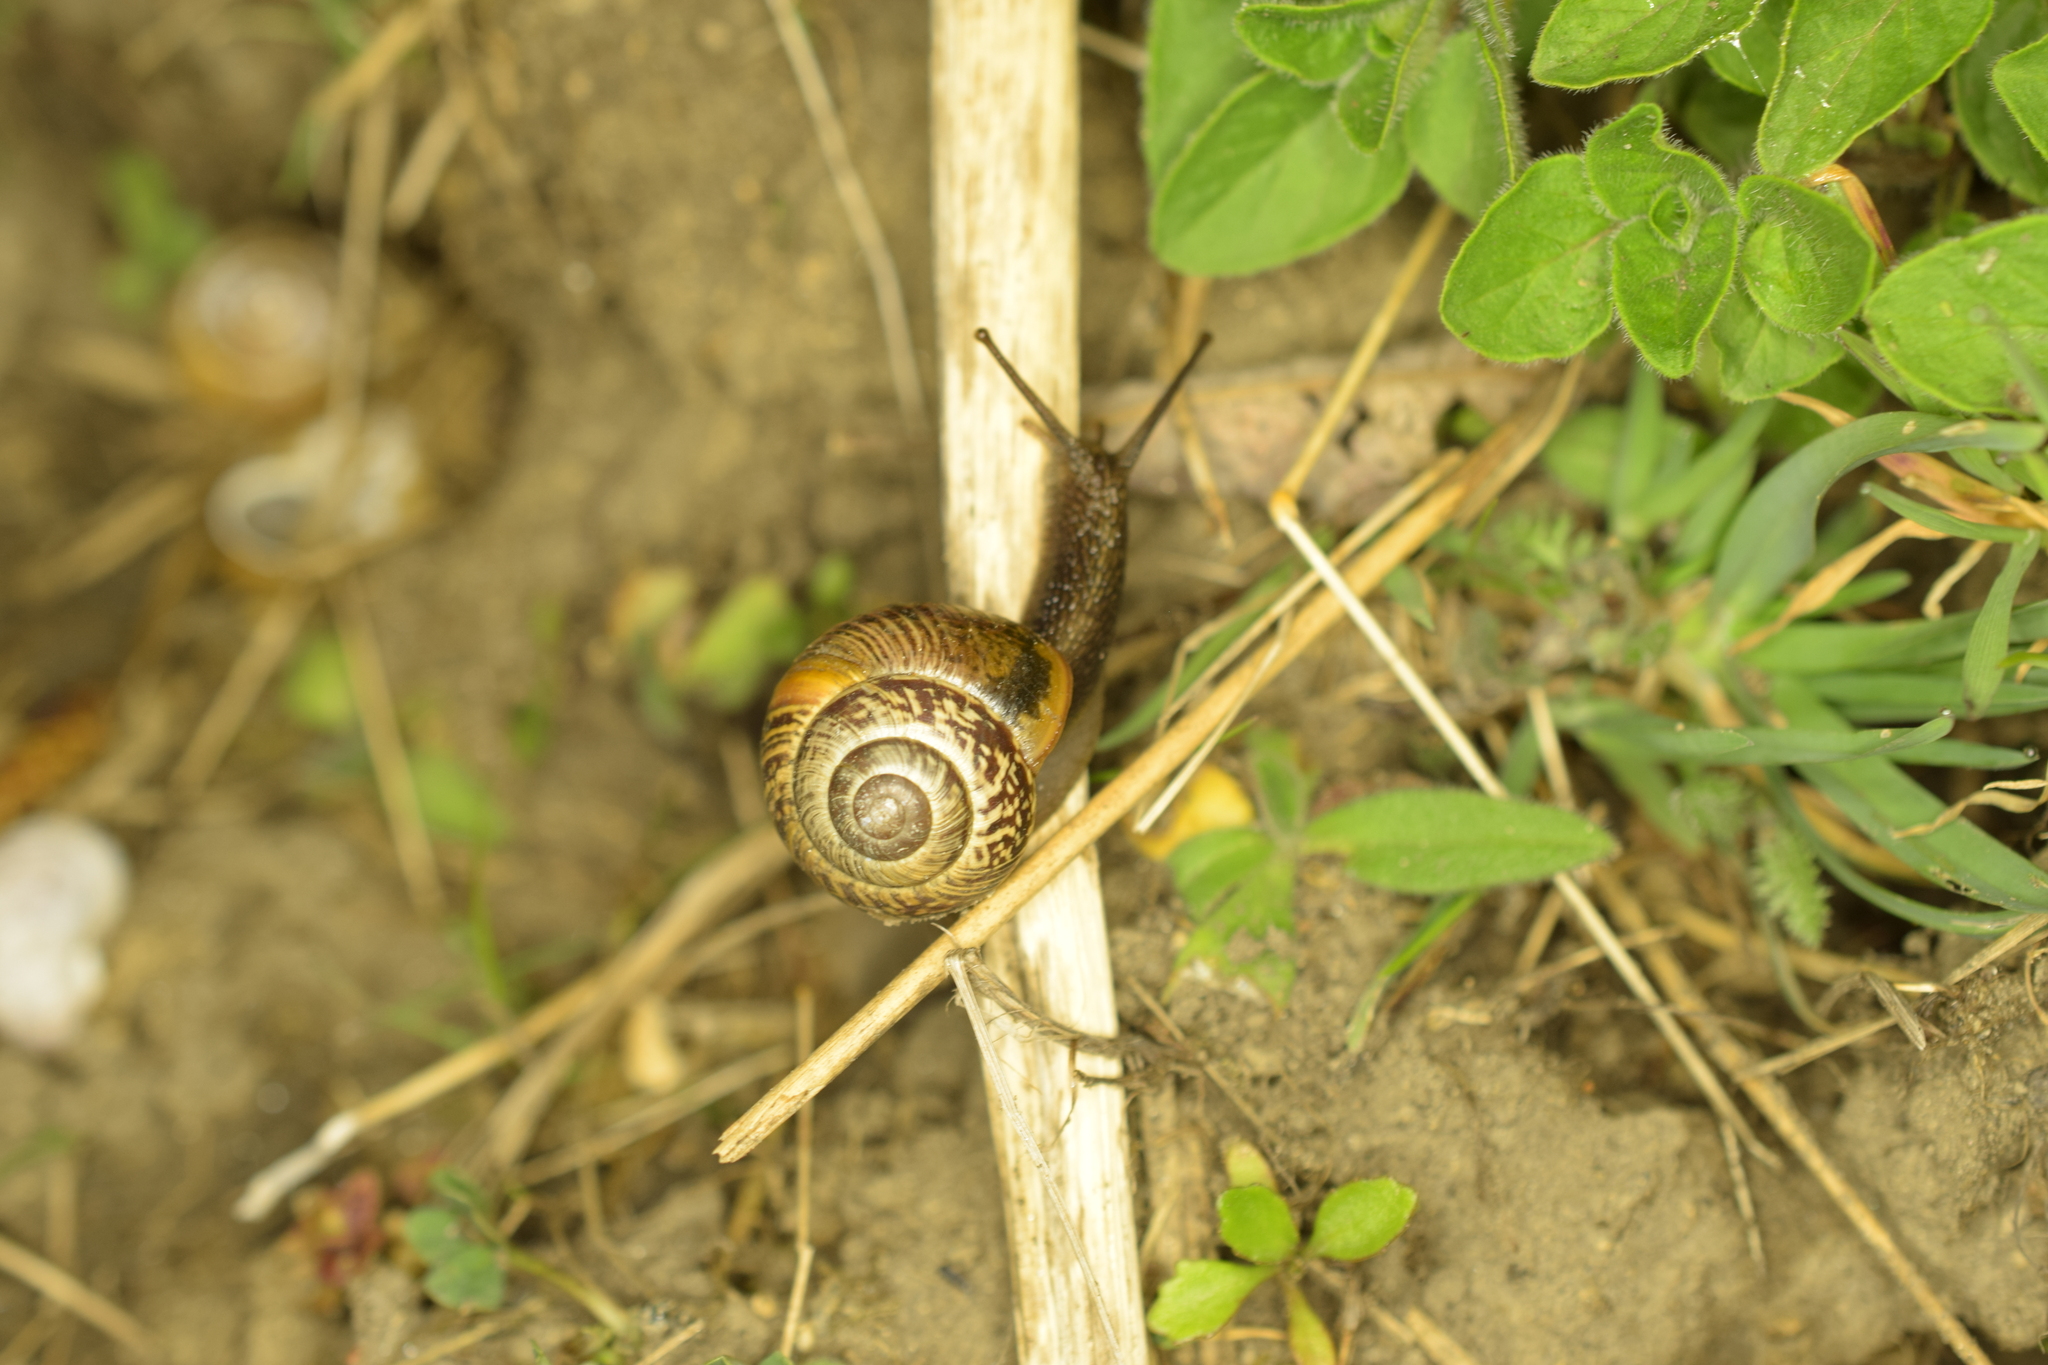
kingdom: Animalia
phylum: Mollusca
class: Gastropoda
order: Stylommatophora
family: Helicidae
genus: Arianta
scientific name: Arianta arbustorum
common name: Copse snail
